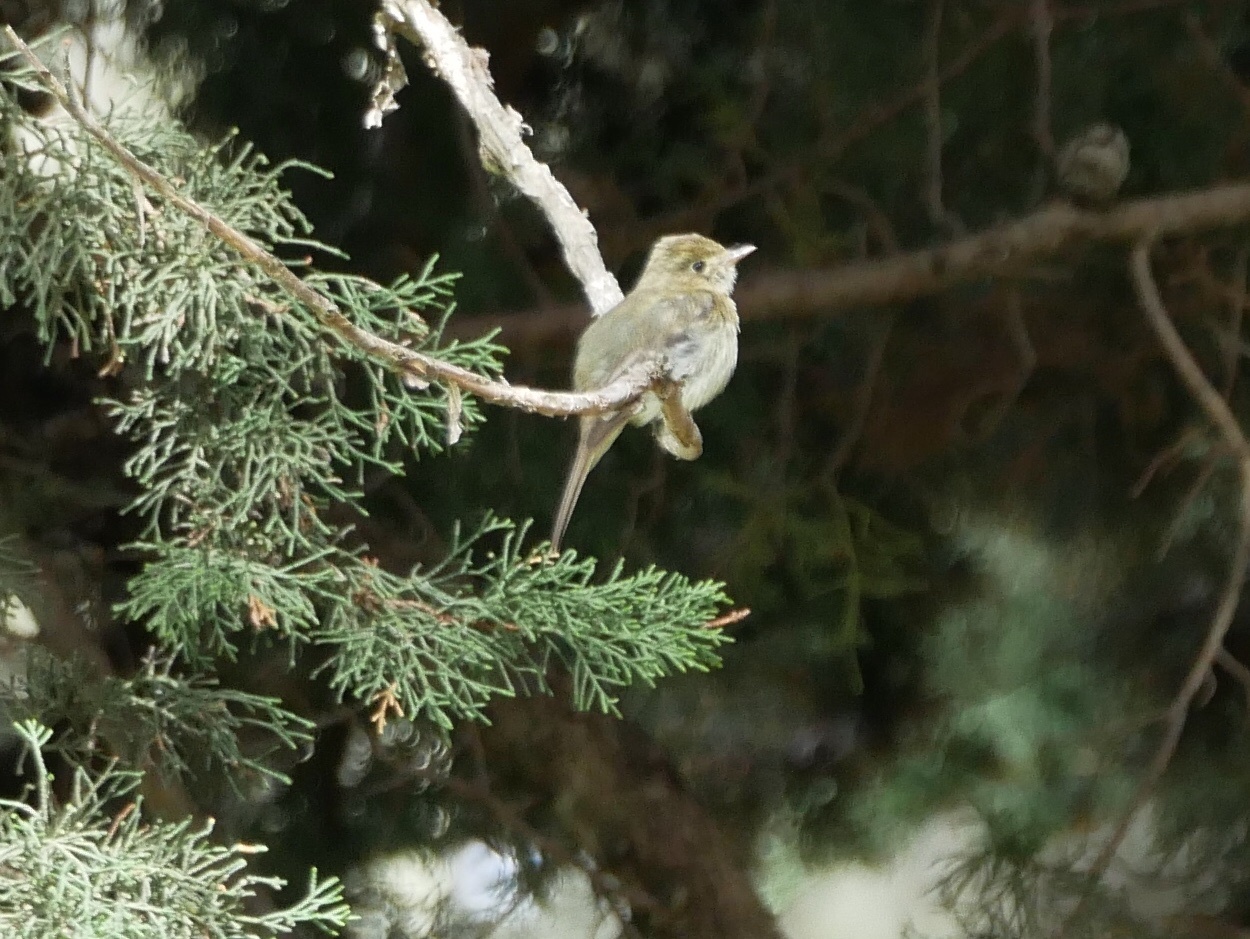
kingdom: Animalia
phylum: Chordata
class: Aves
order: Passeriformes
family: Tyrannidae
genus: Empidonax
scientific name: Empidonax difficilis
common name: Pacific-slope flycatcher
